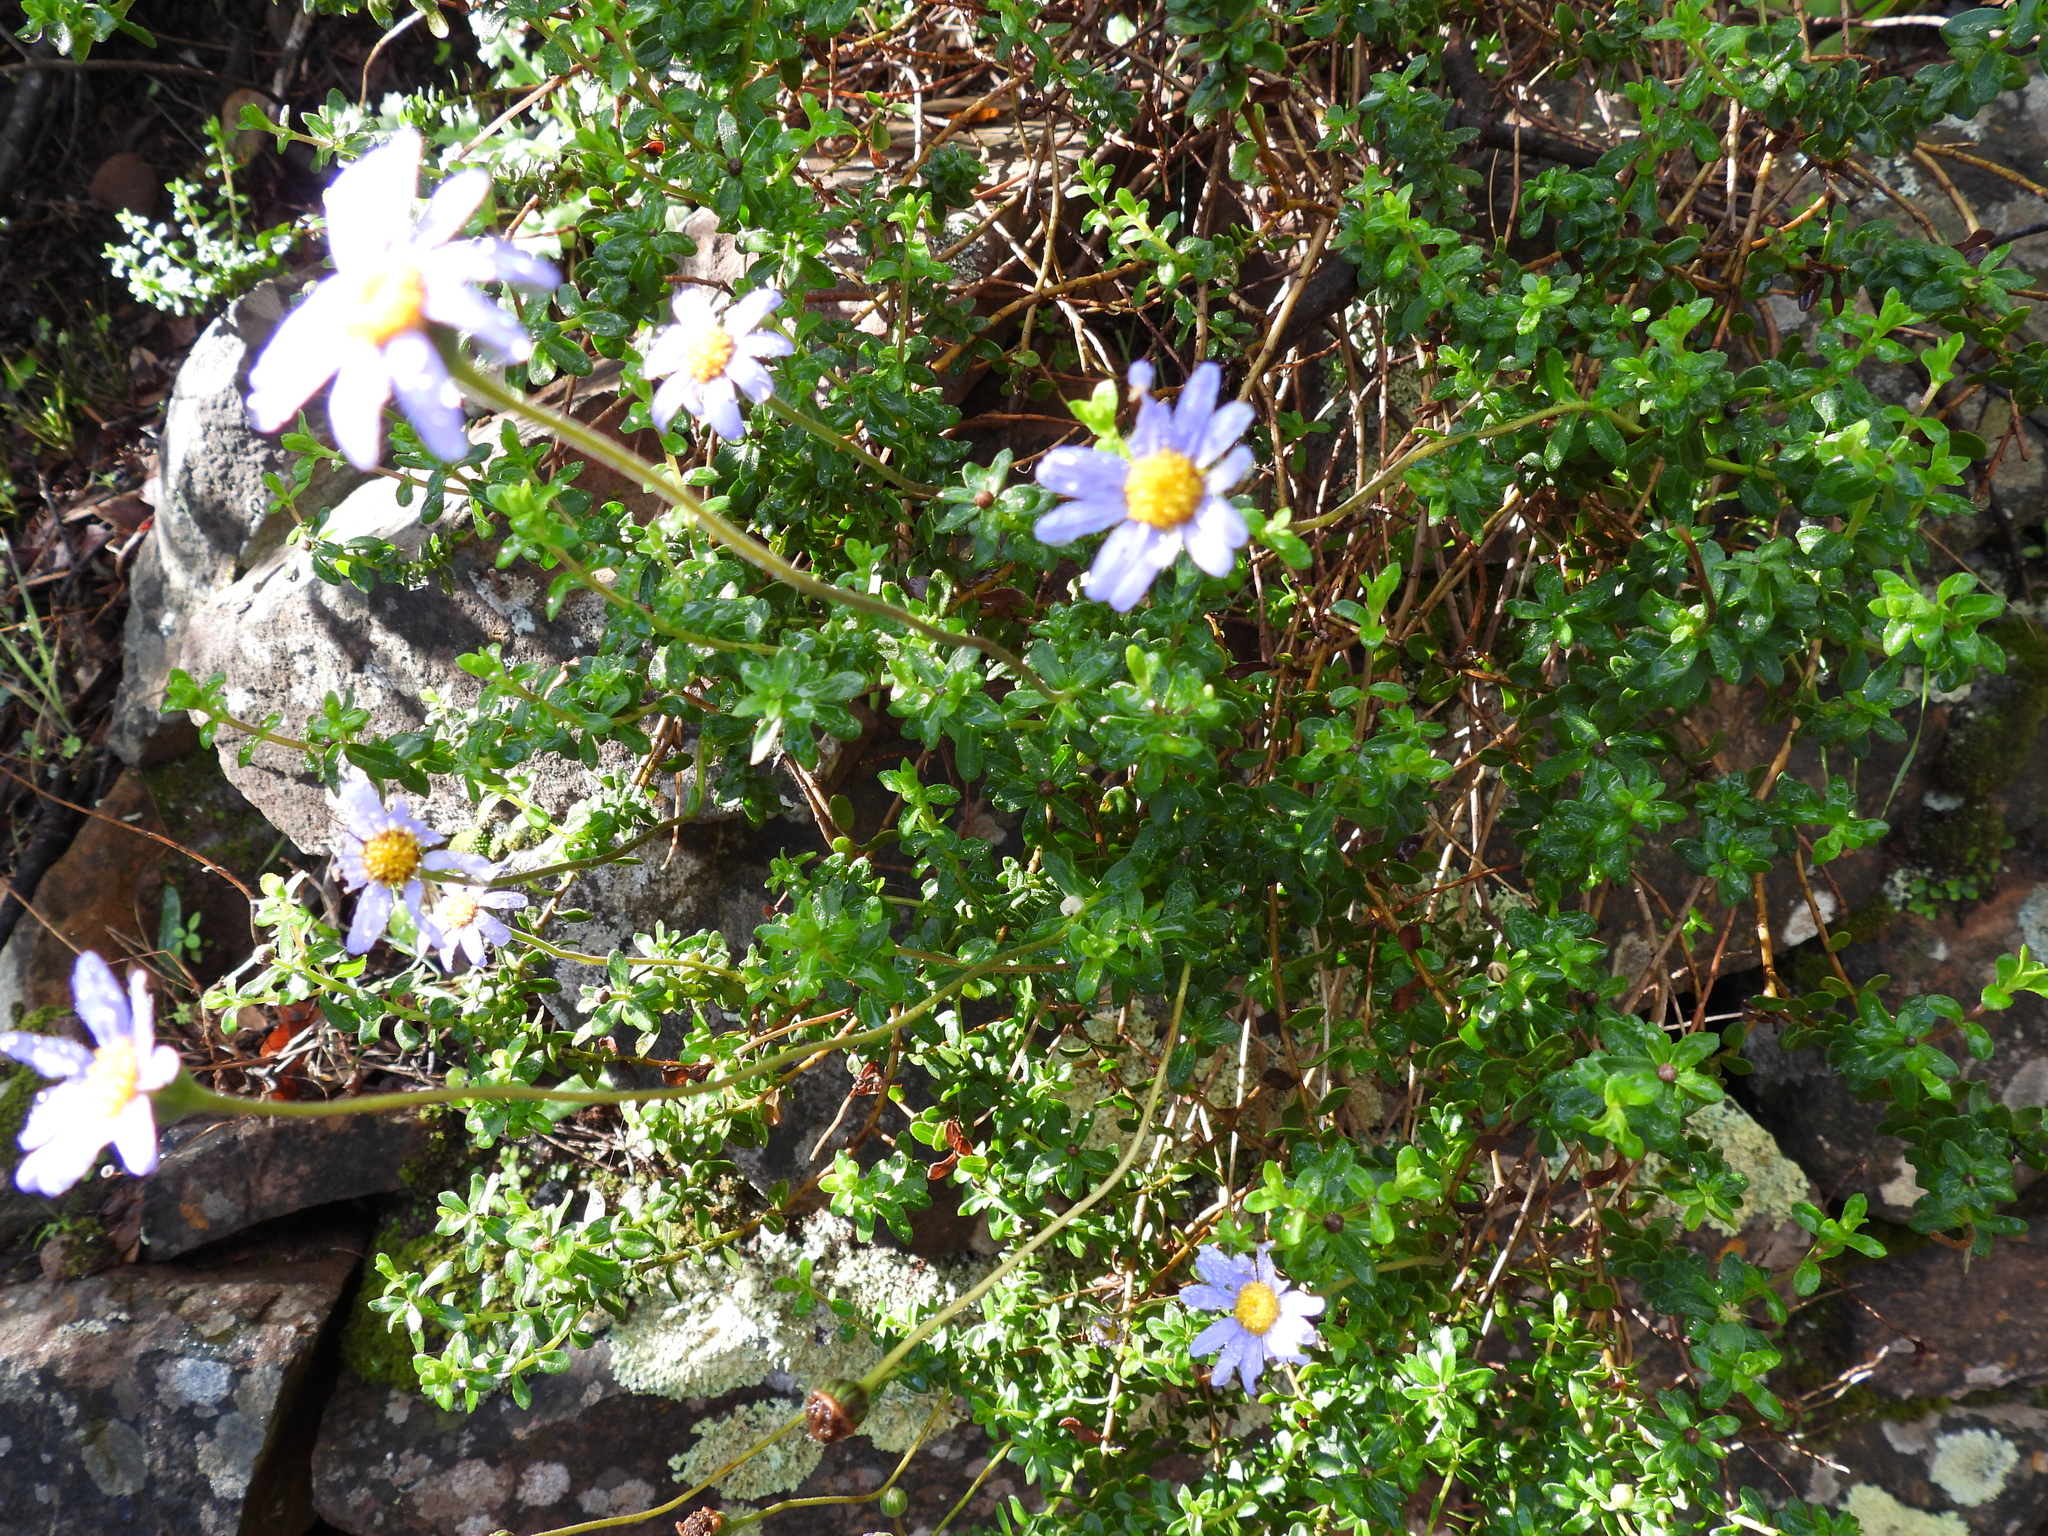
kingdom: Plantae
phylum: Tracheophyta
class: Magnoliopsida
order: Asterales
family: Asteraceae
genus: Felicia
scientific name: Felicia aethiopica
